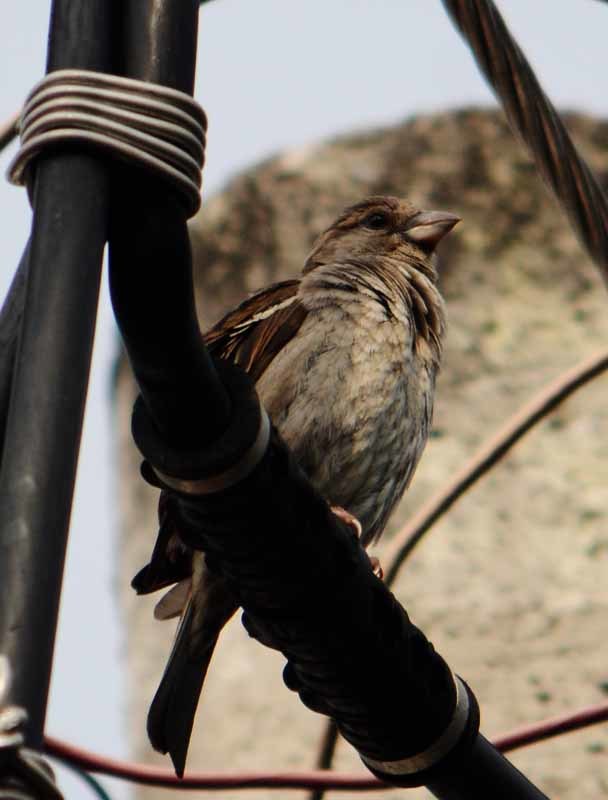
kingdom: Animalia
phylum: Chordata
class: Aves
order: Passeriformes
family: Passeridae
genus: Passer
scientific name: Passer domesticus
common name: House sparrow
